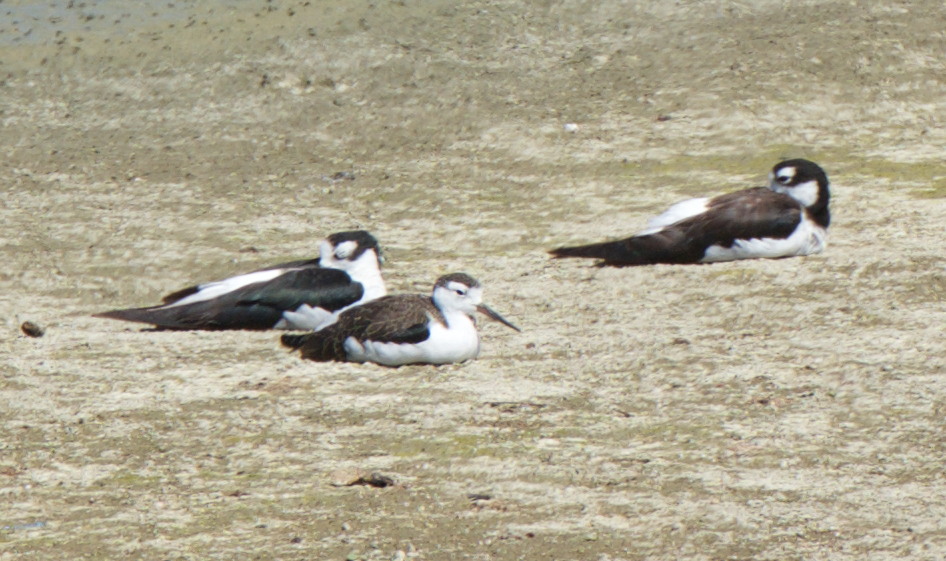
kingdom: Animalia
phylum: Chordata
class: Aves
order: Charadriiformes
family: Recurvirostridae
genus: Himantopus
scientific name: Himantopus mexicanus
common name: Black-necked stilt
